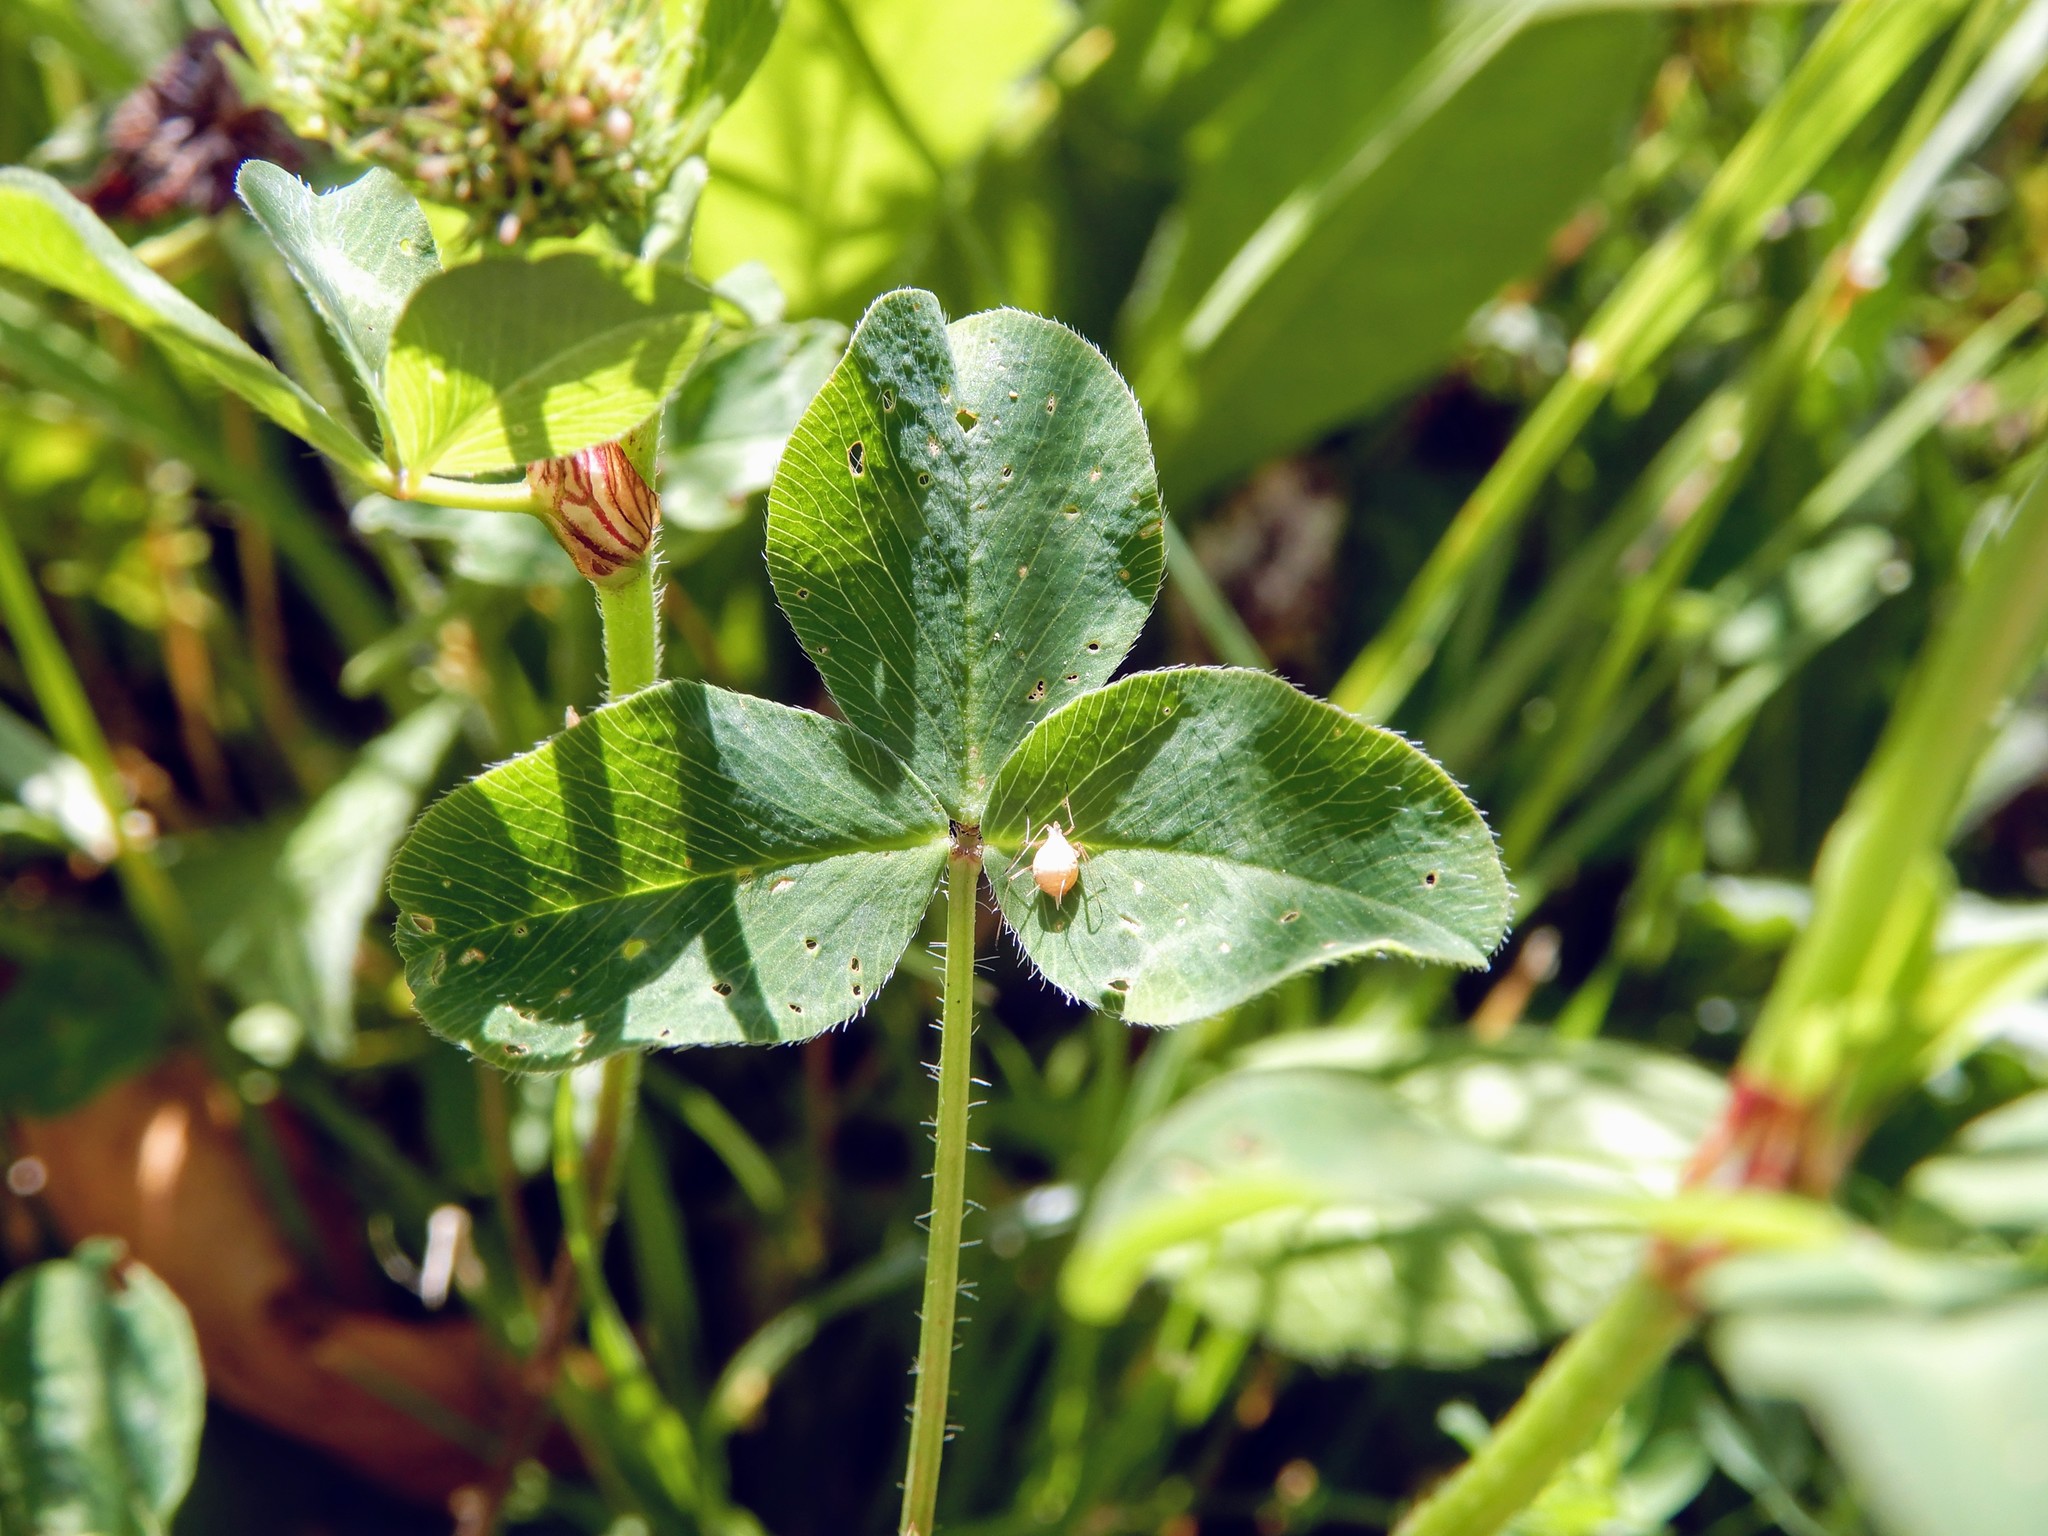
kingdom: Plantae
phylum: Tracheophyta
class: Magnoliopsida
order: Fabales
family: Fabaceae
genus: Trifolium
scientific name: Trifolium pratense
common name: Red clover
